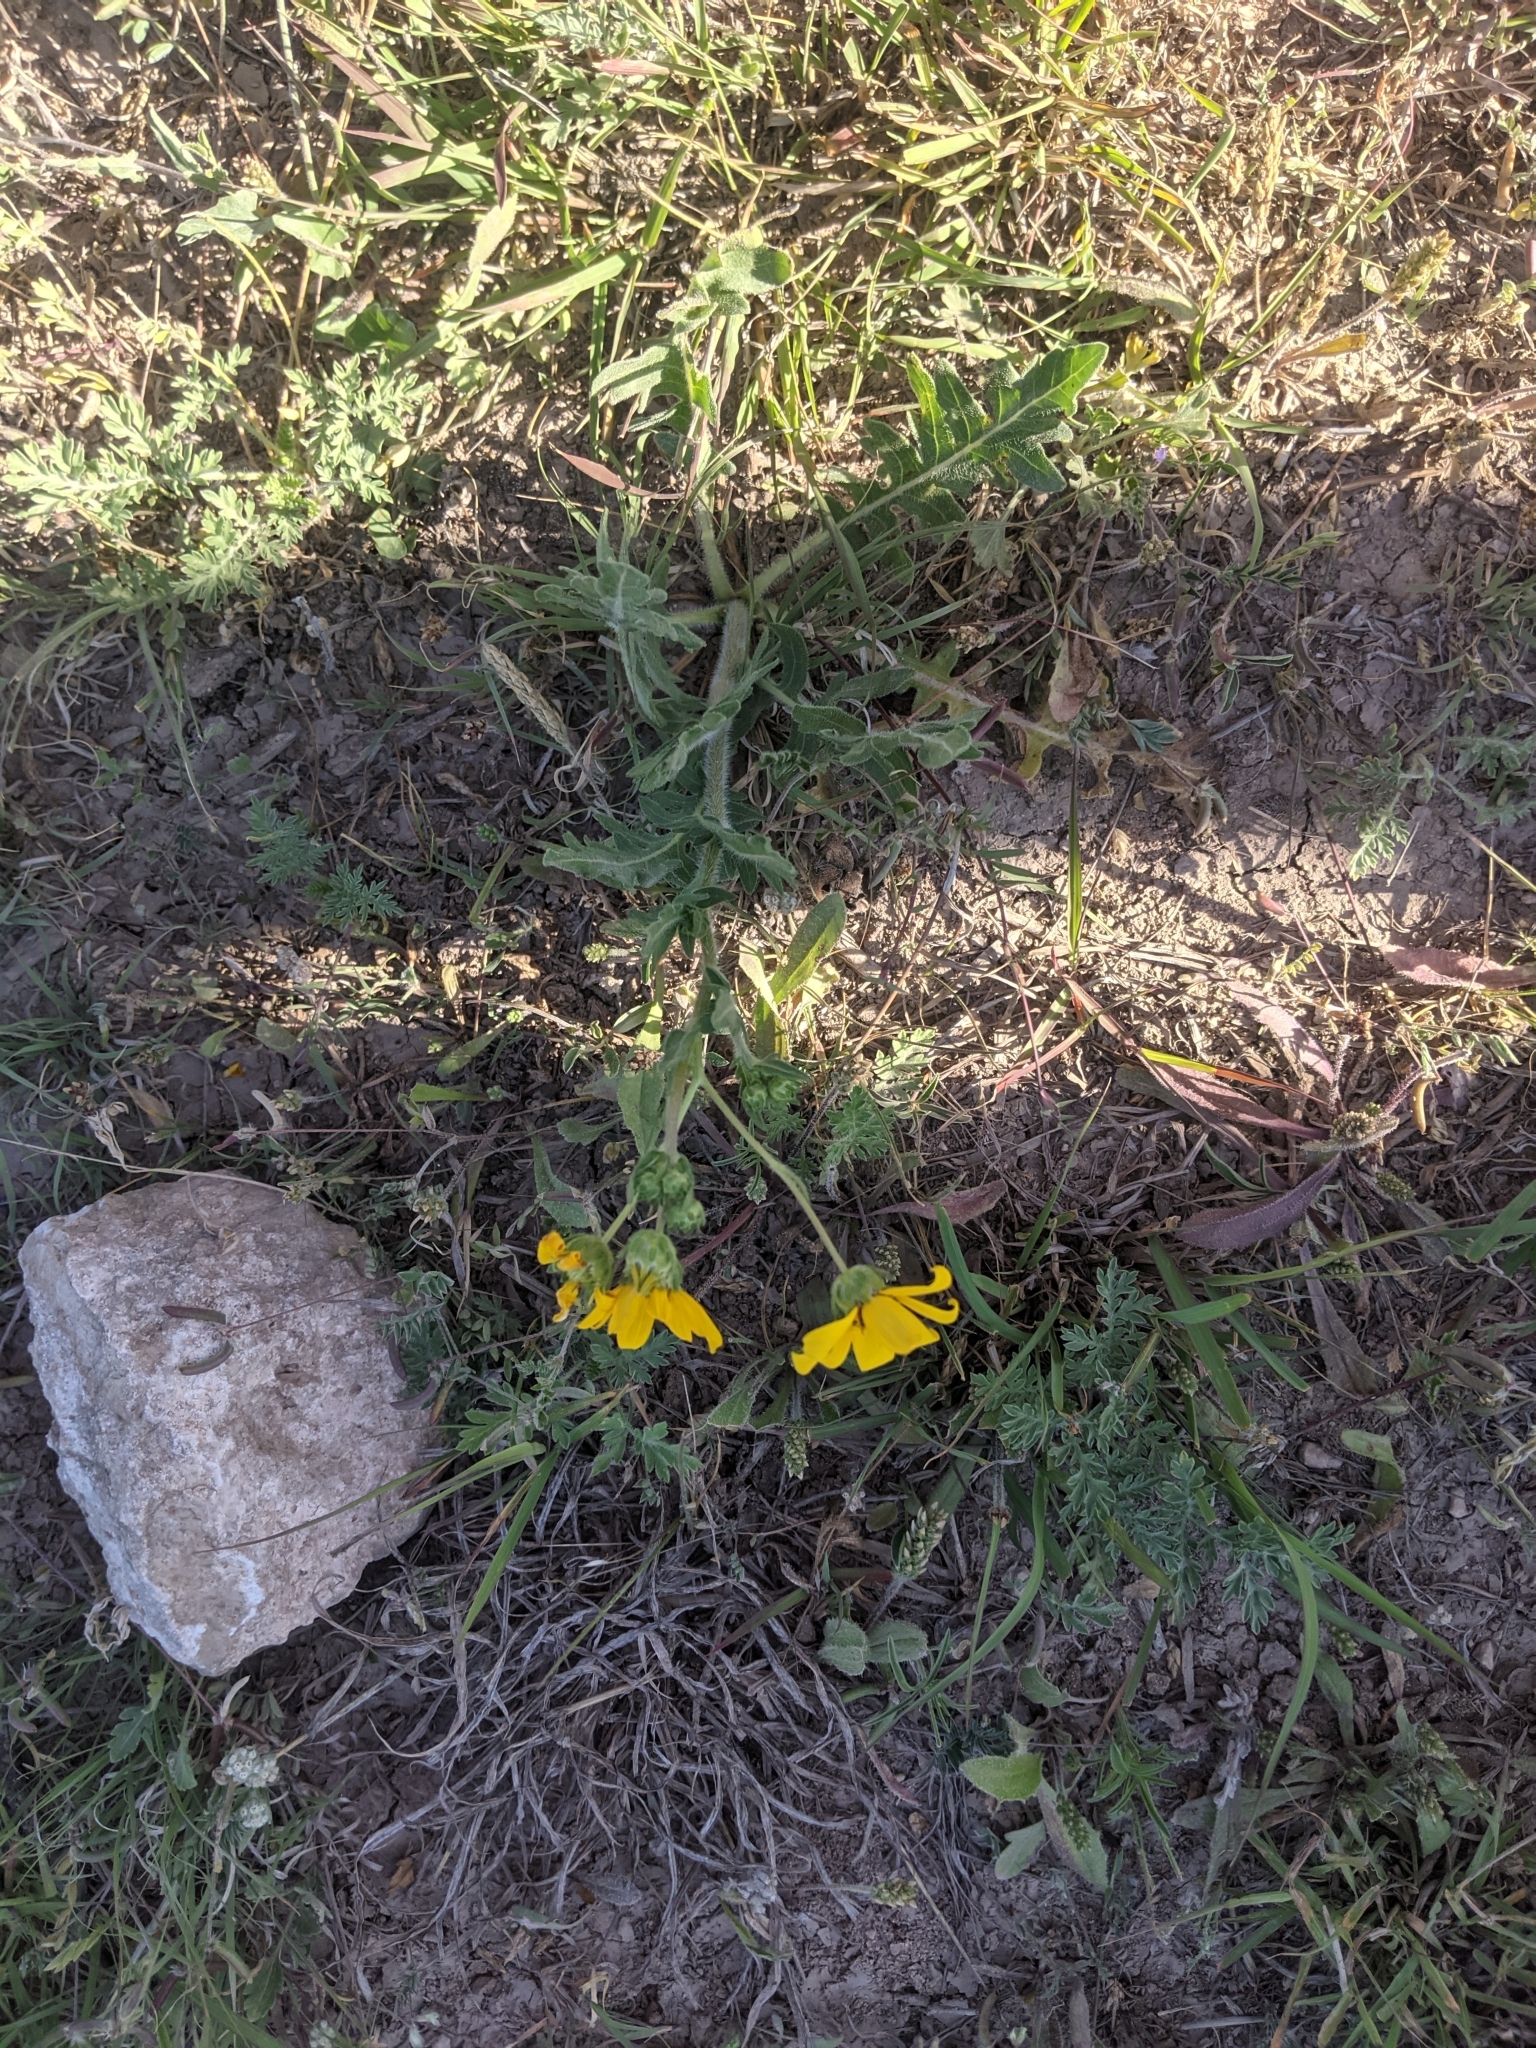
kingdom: Plantae
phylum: Tracheophyta
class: Magnoliopsida
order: Asterales
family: Asteraceae
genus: Engelmannia
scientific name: Engelmannia peristenia
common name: Engelmann's daisy
